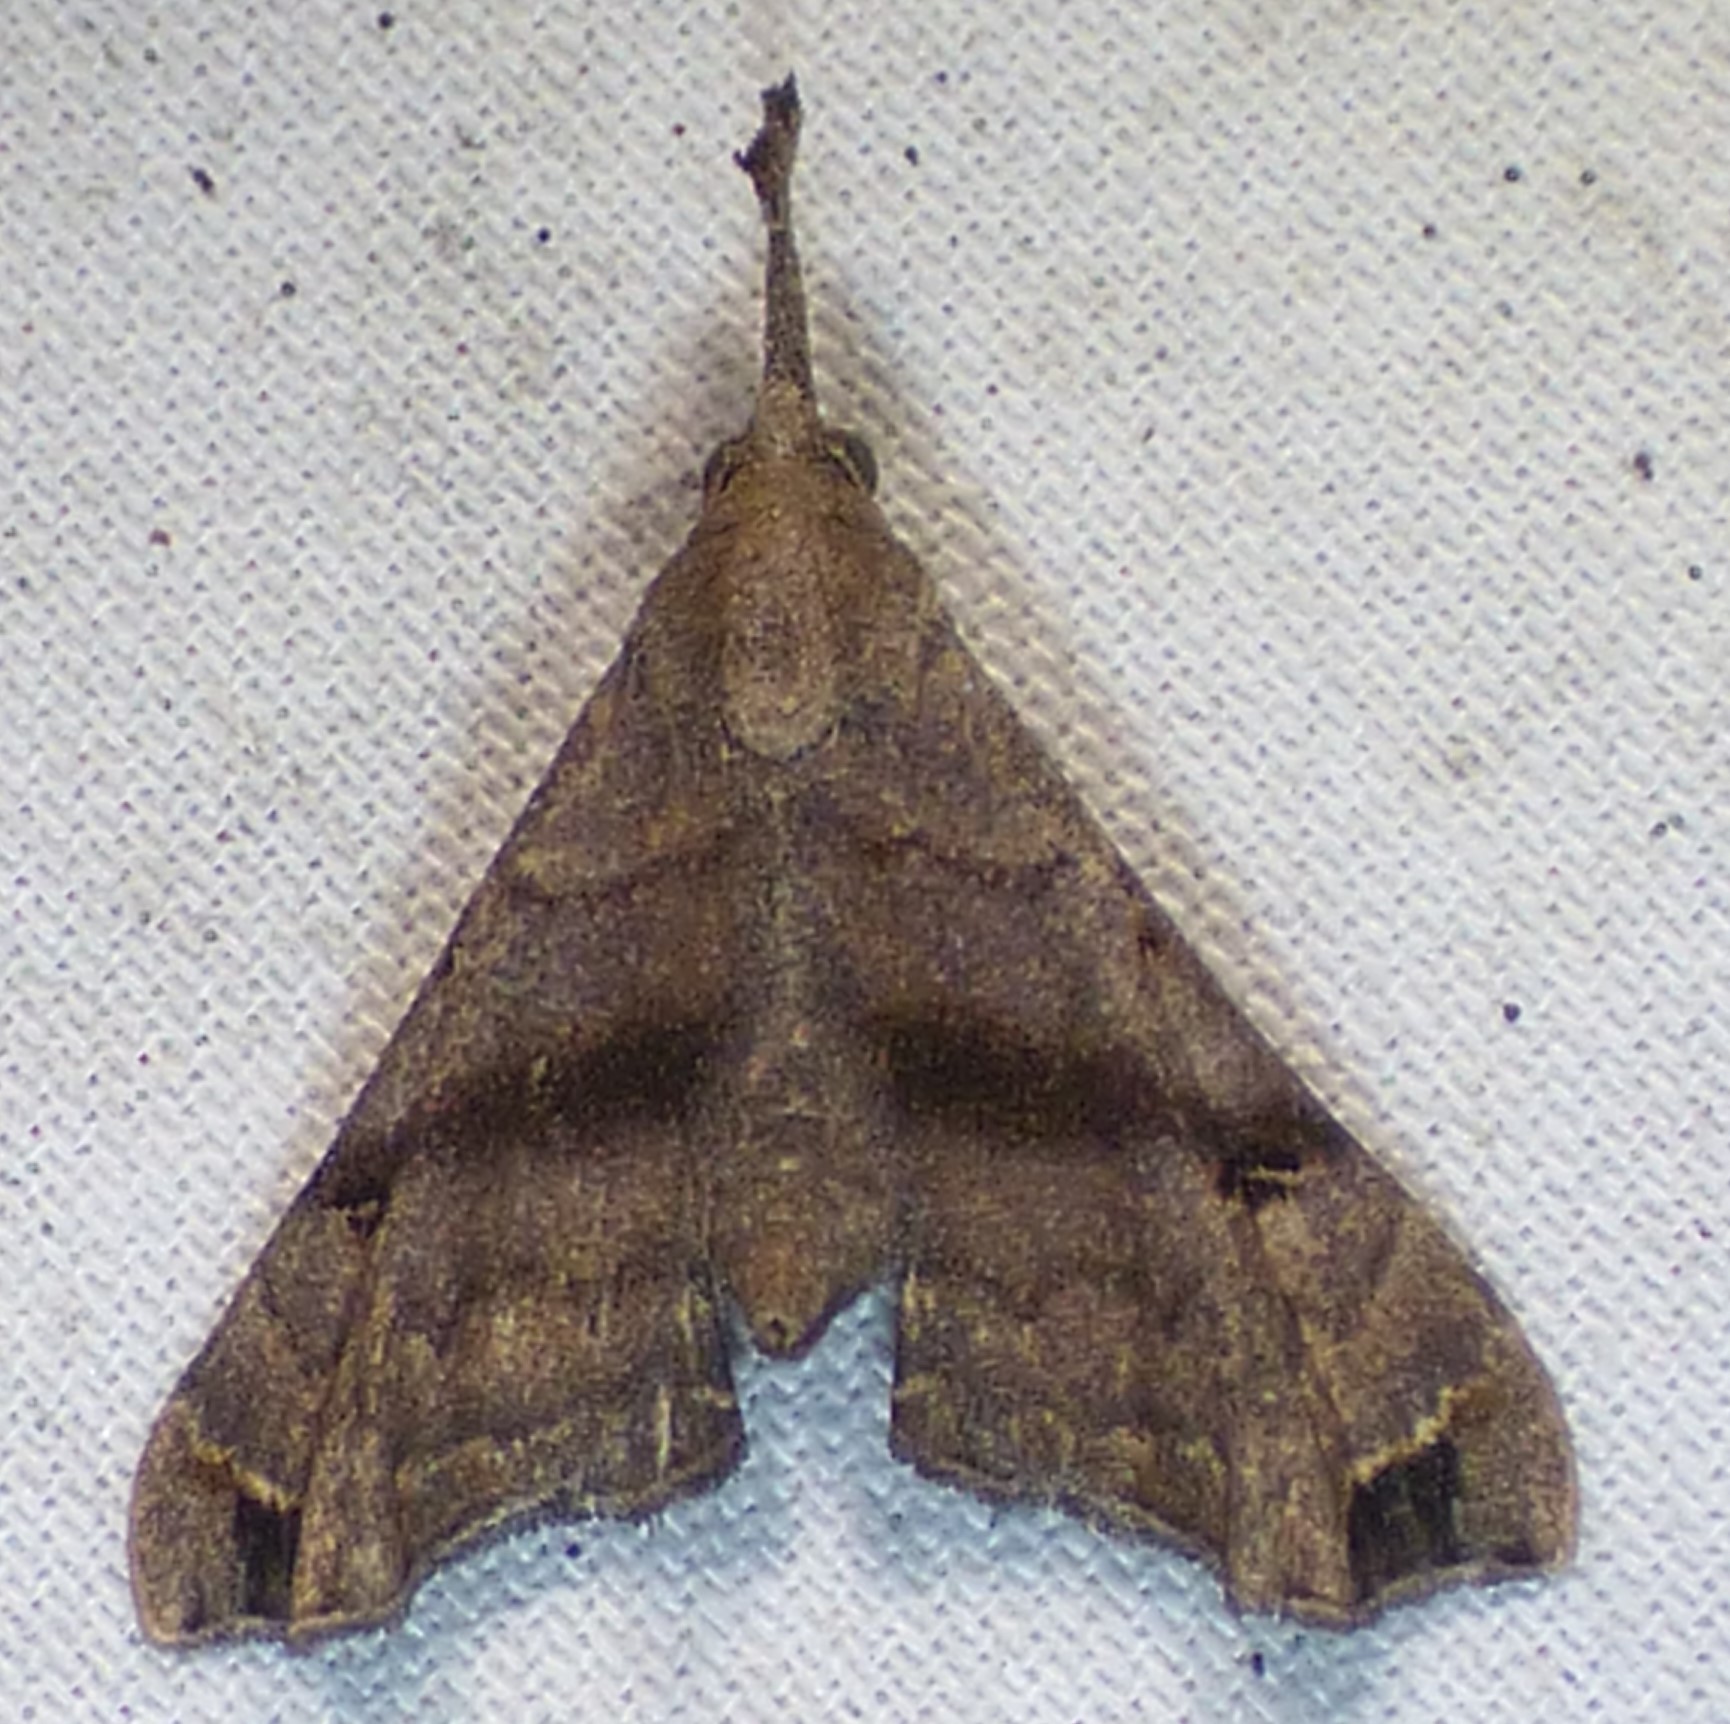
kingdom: Animalia
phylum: Arthropoda
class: Insecta
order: Lepidoptera
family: Erebidae
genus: Palthis
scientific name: Palthis asopialis
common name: Faint-spotted palthis moth
